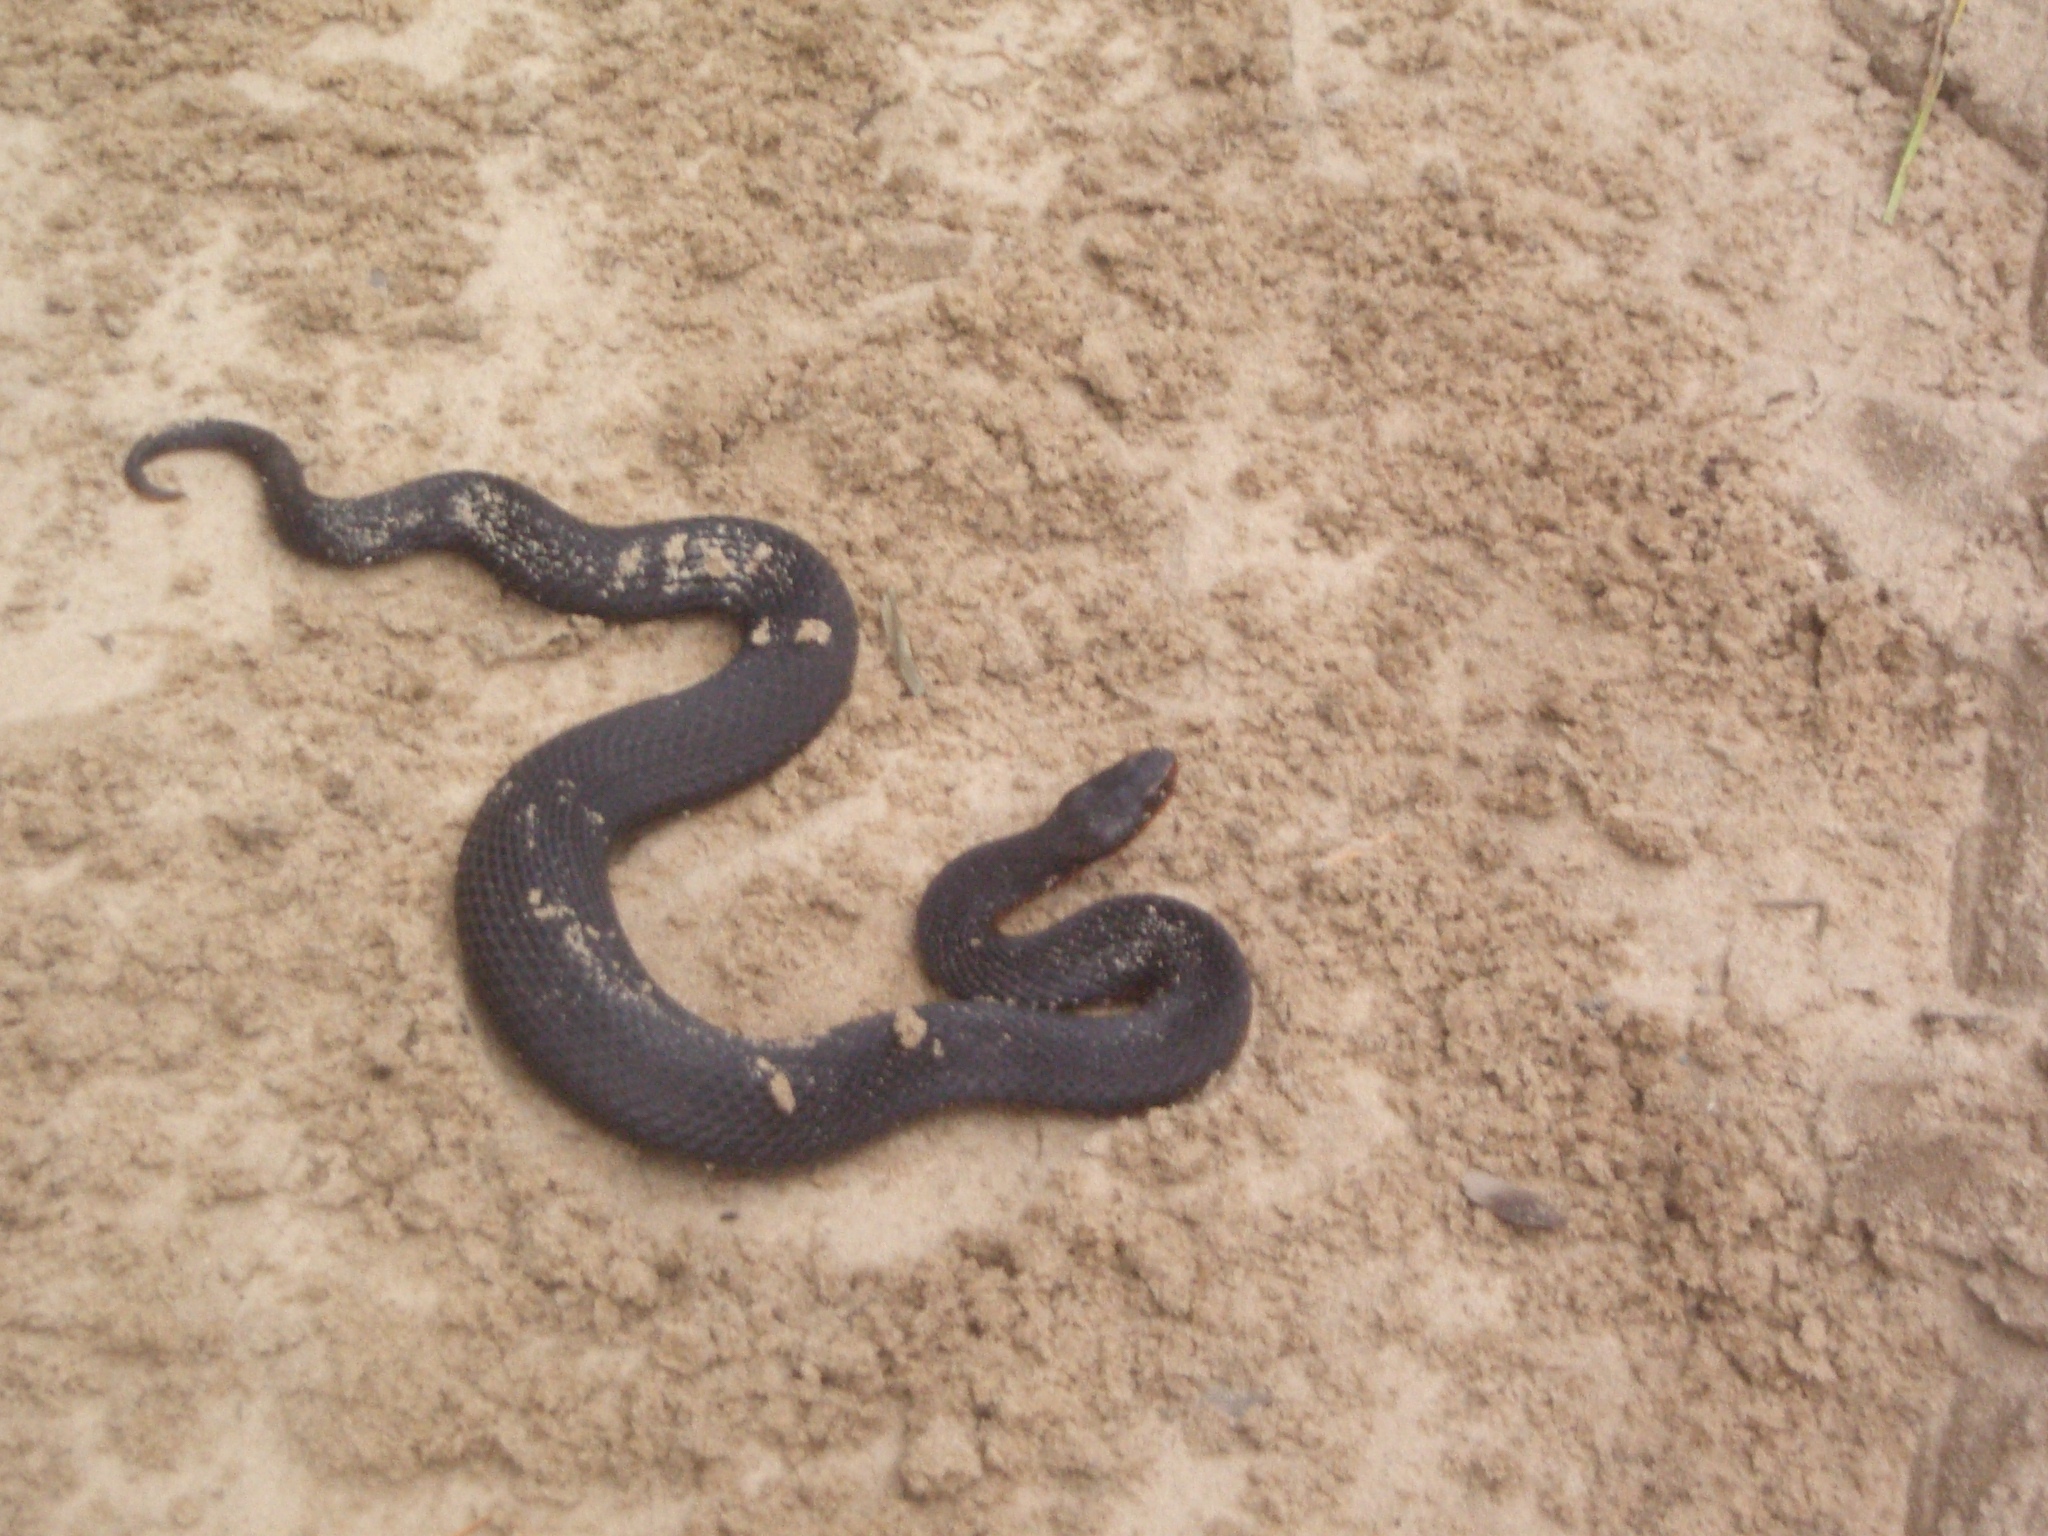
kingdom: Animalia
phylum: Chordata
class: Squamata
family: Viperidae
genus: Vipera
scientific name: Vipera berus
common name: Adder
